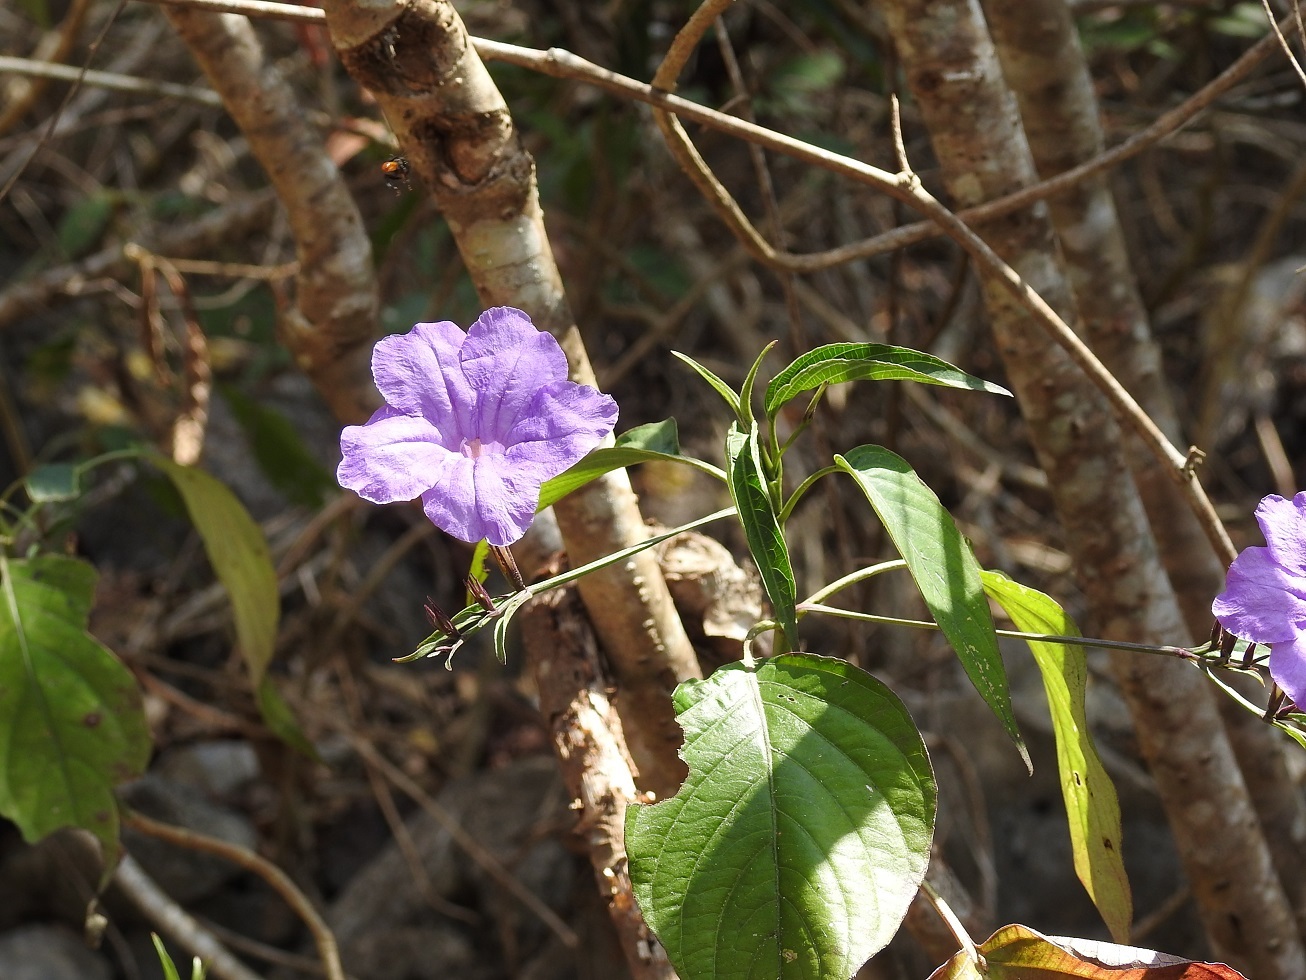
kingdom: Plantae
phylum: Tracheophyta
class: Magnoliopsida
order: Lamiales
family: Acanthaceae
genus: Ruellia
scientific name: Ruellia breedlovei
